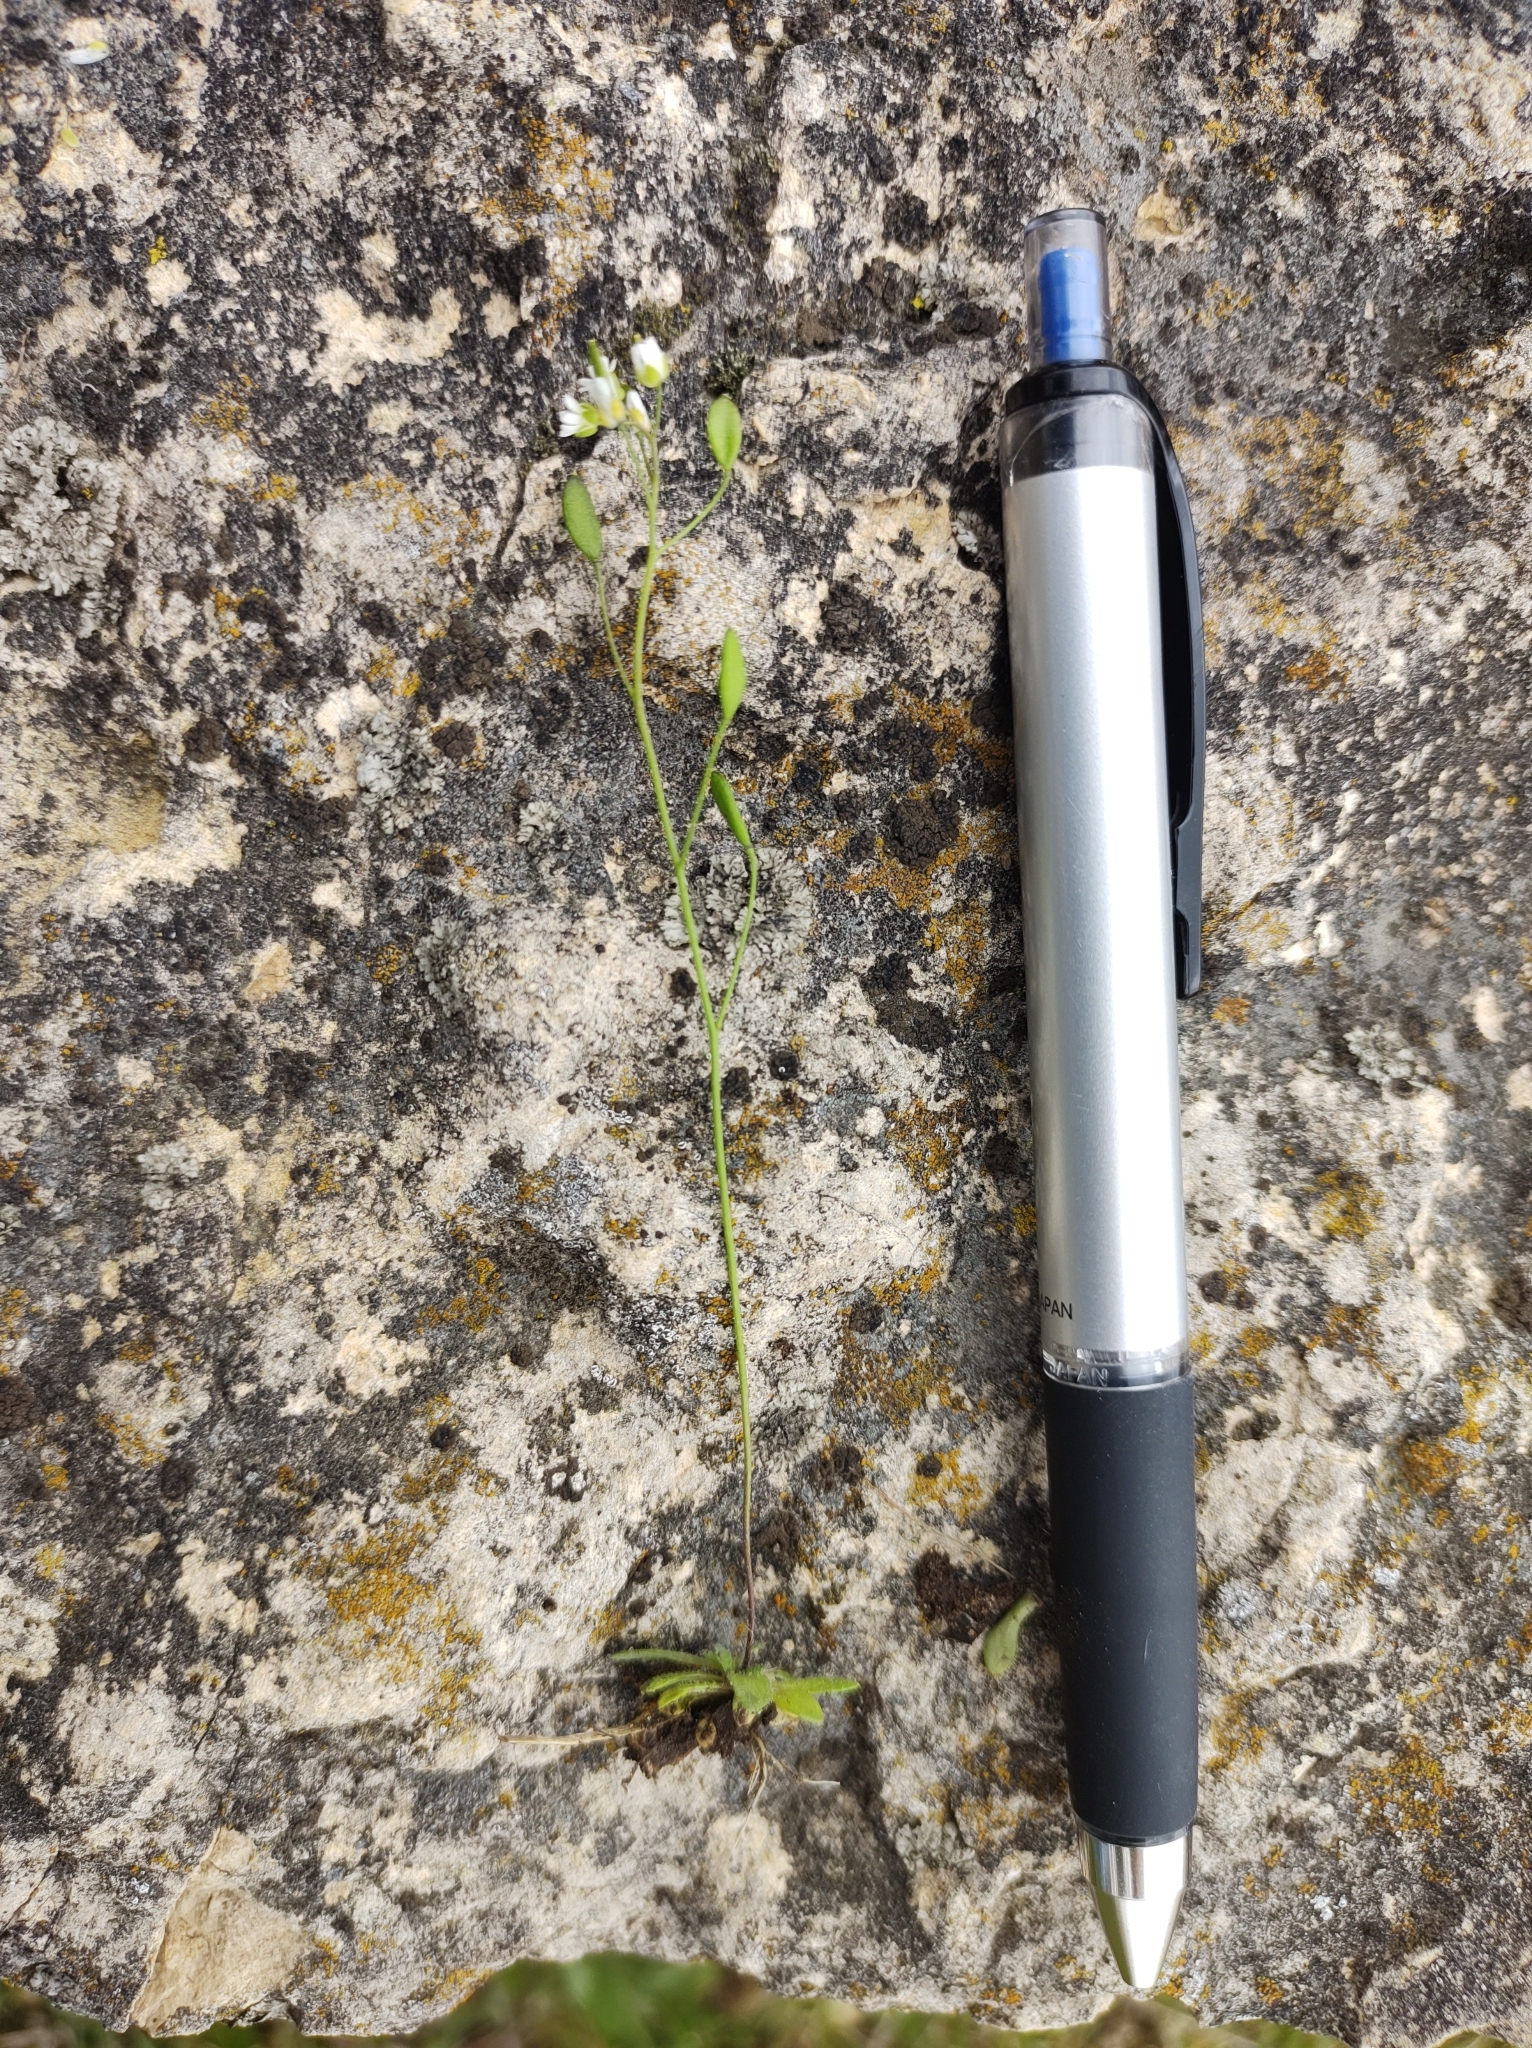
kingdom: Plantae
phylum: Tracheophyta
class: Magnoliopsida
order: Brassicales
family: Brassicaceae
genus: Draba
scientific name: Draba verna
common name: Spring draba
